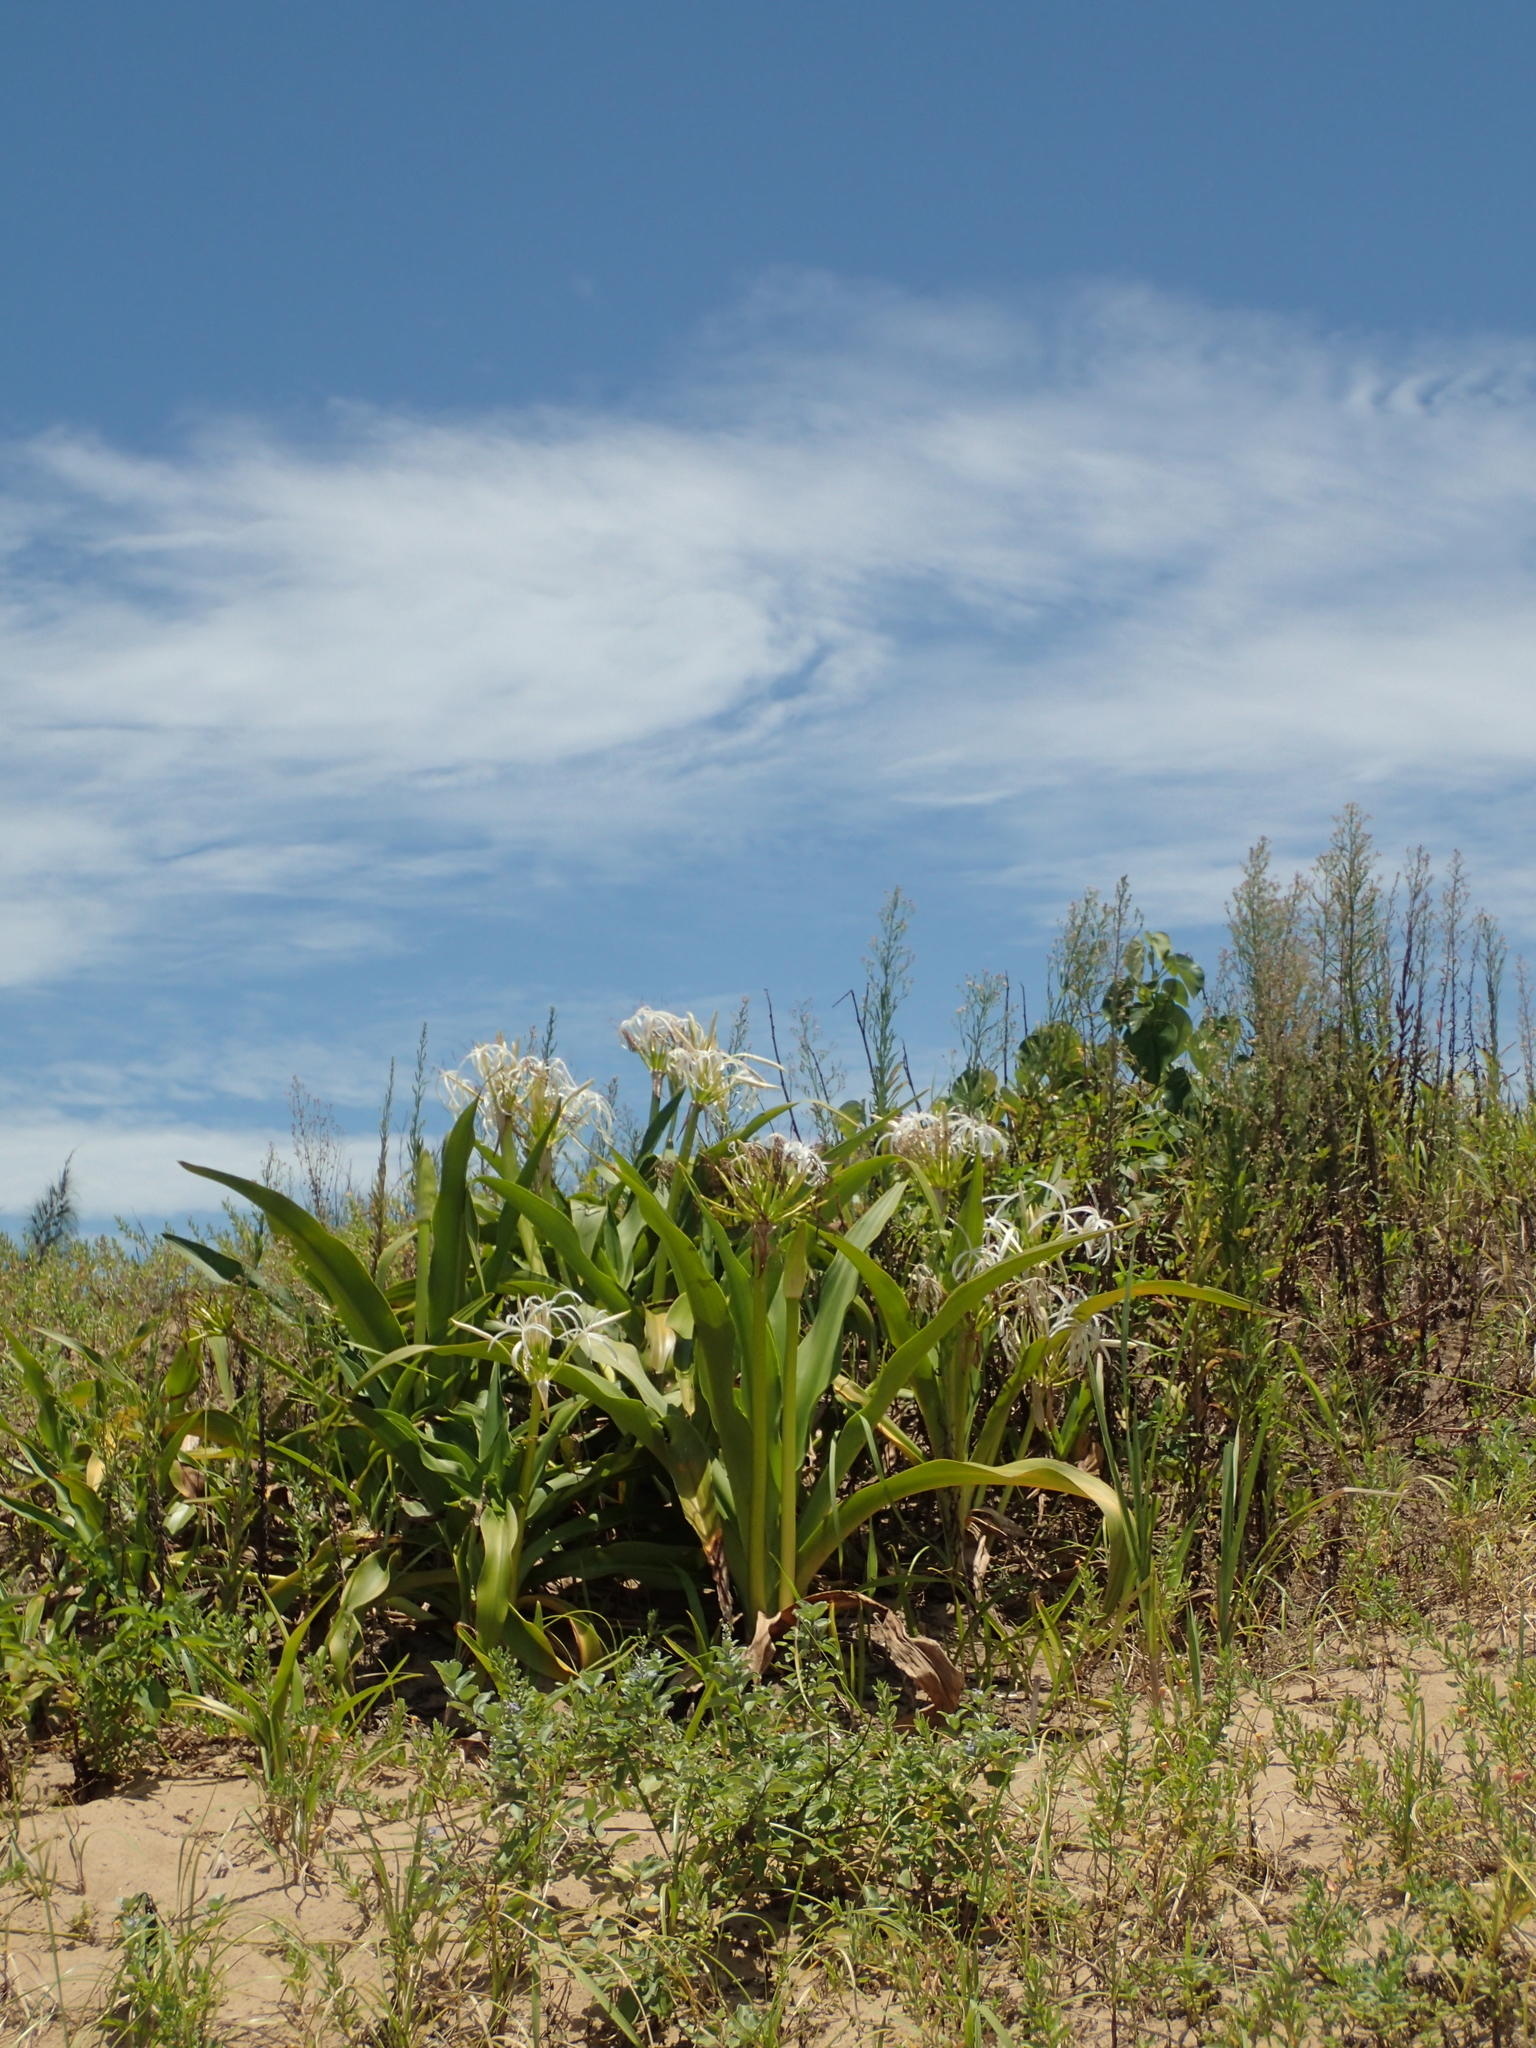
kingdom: Plantae
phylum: Tracheophyta
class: Liliopsida
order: Asparagales
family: Amaryllidaceae
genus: Crinum
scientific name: Crinum asiaticum
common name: Poisonbulb
